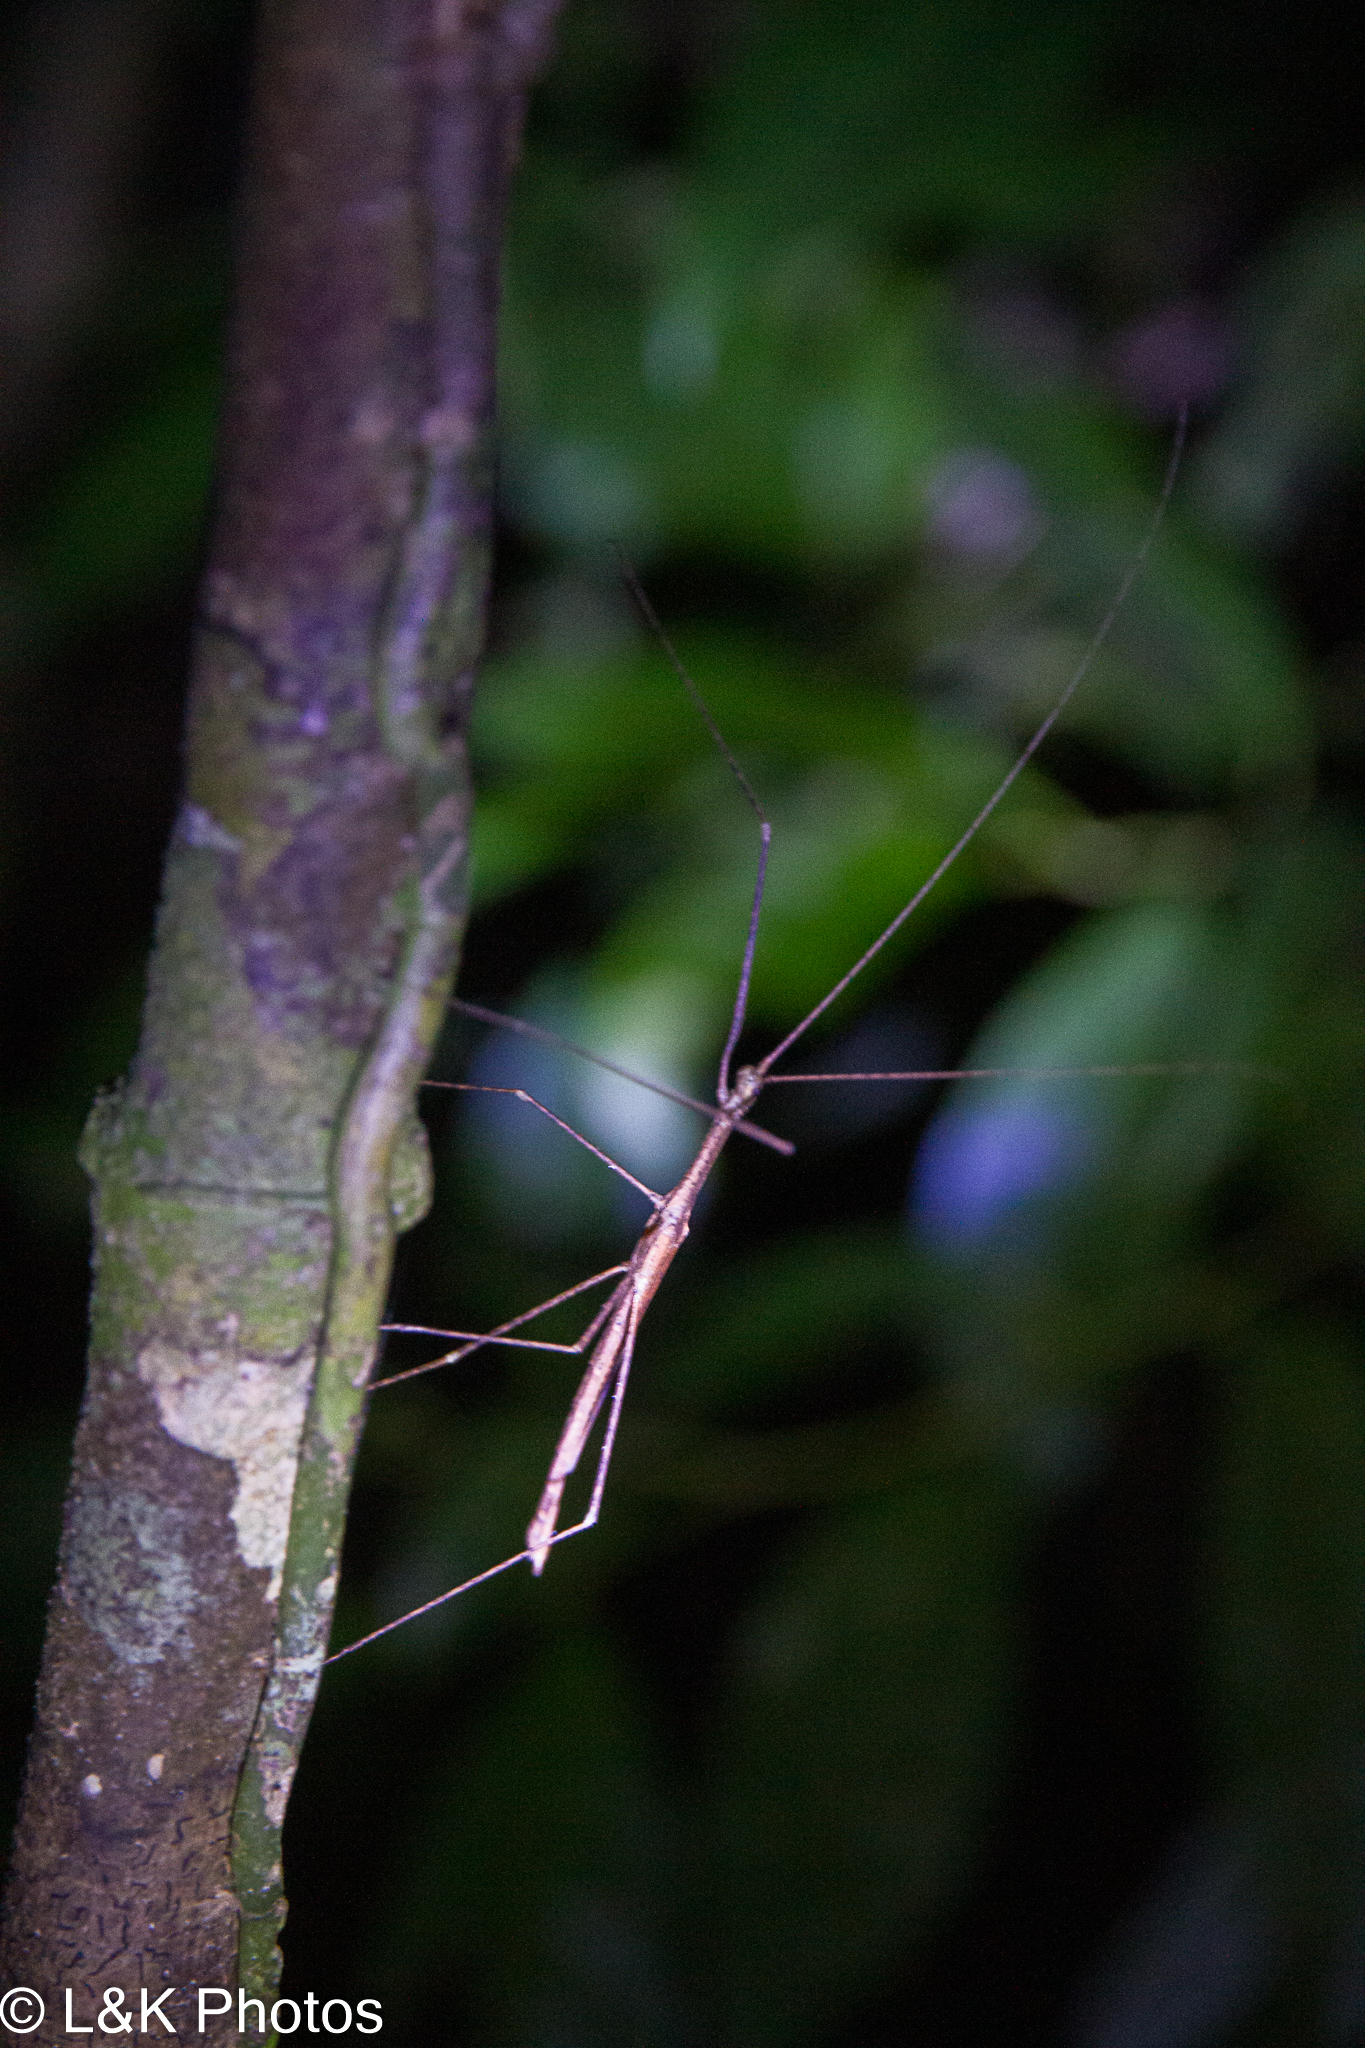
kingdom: Animalia
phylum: Arthropoda
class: Insecta
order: Phasmida
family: Lonchodidae
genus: Sipyloidea
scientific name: Sipyloidea larryi
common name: Hurricane larry stick-insect
